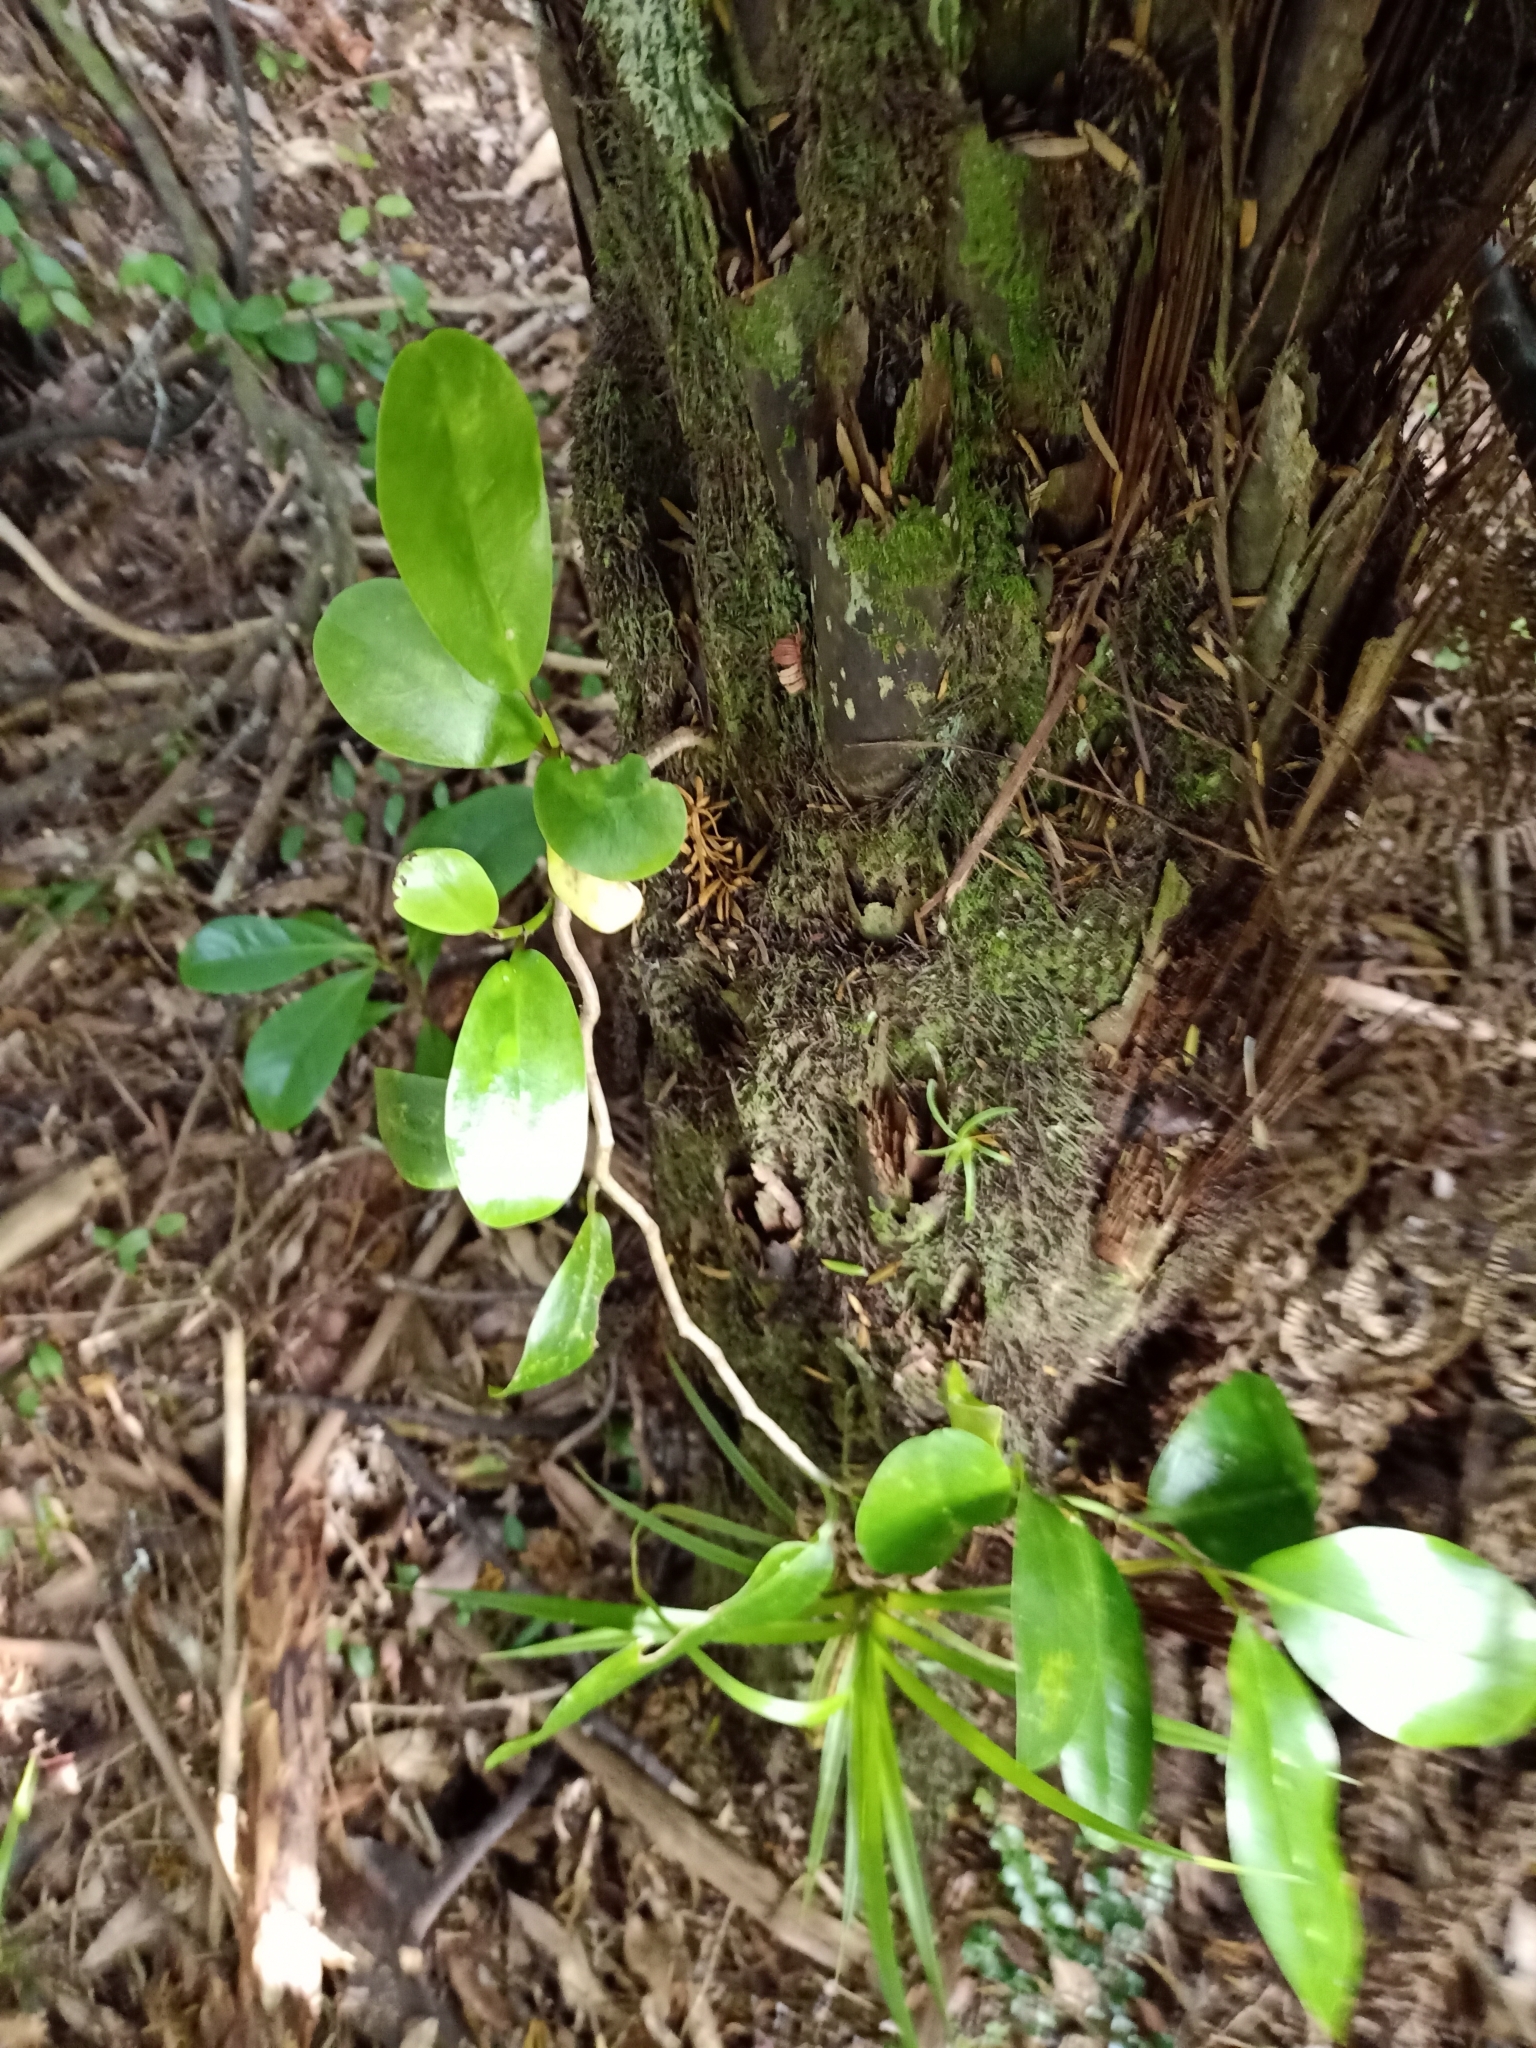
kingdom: Plantae
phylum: Tracheophyta
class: Magnoliopsida
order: Apiales
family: Griseliniaceae
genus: Griselinia
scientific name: Griselinia lucida
